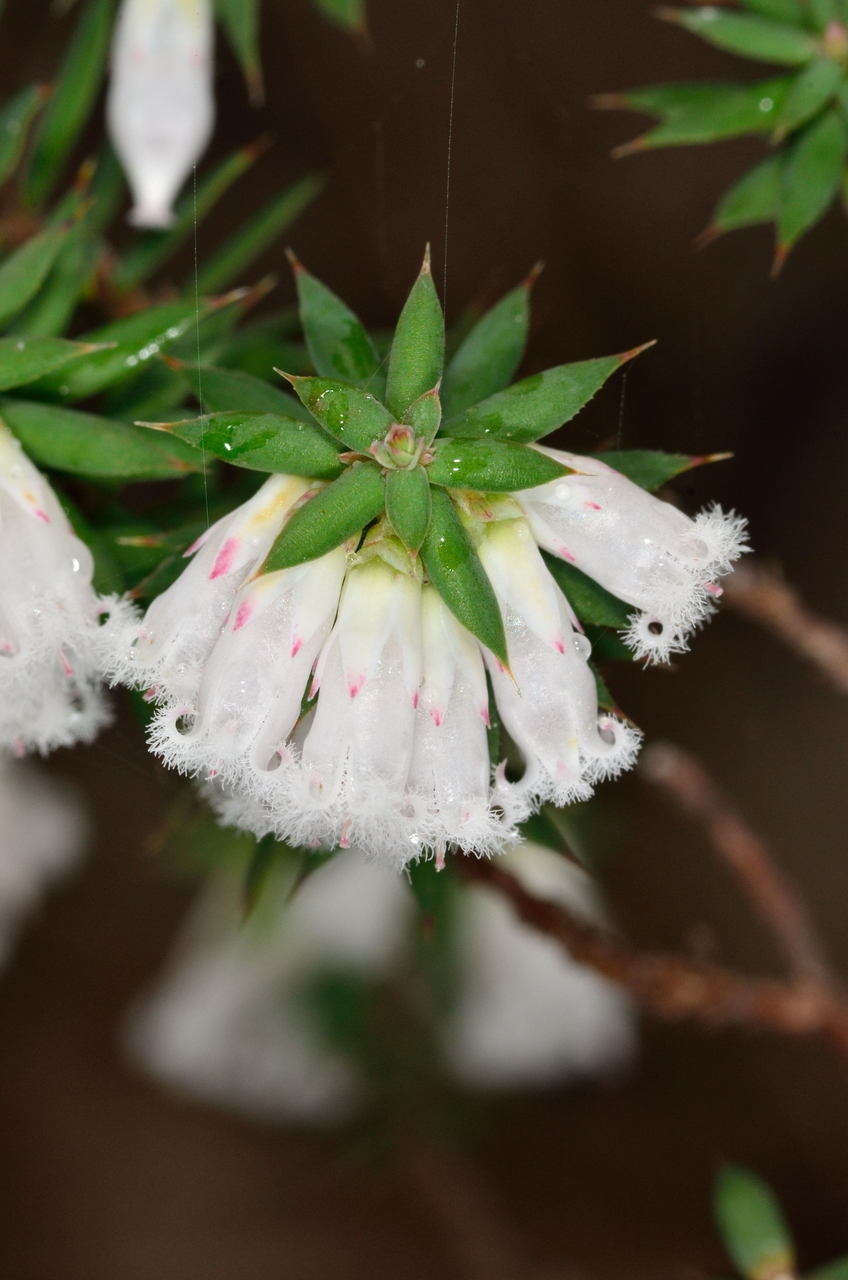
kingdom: Plantae
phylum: Tracheophyta
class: Magnoliopsida
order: Ericales
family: Ericaceae
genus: Styphelia
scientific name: Styphelia fletcheri
